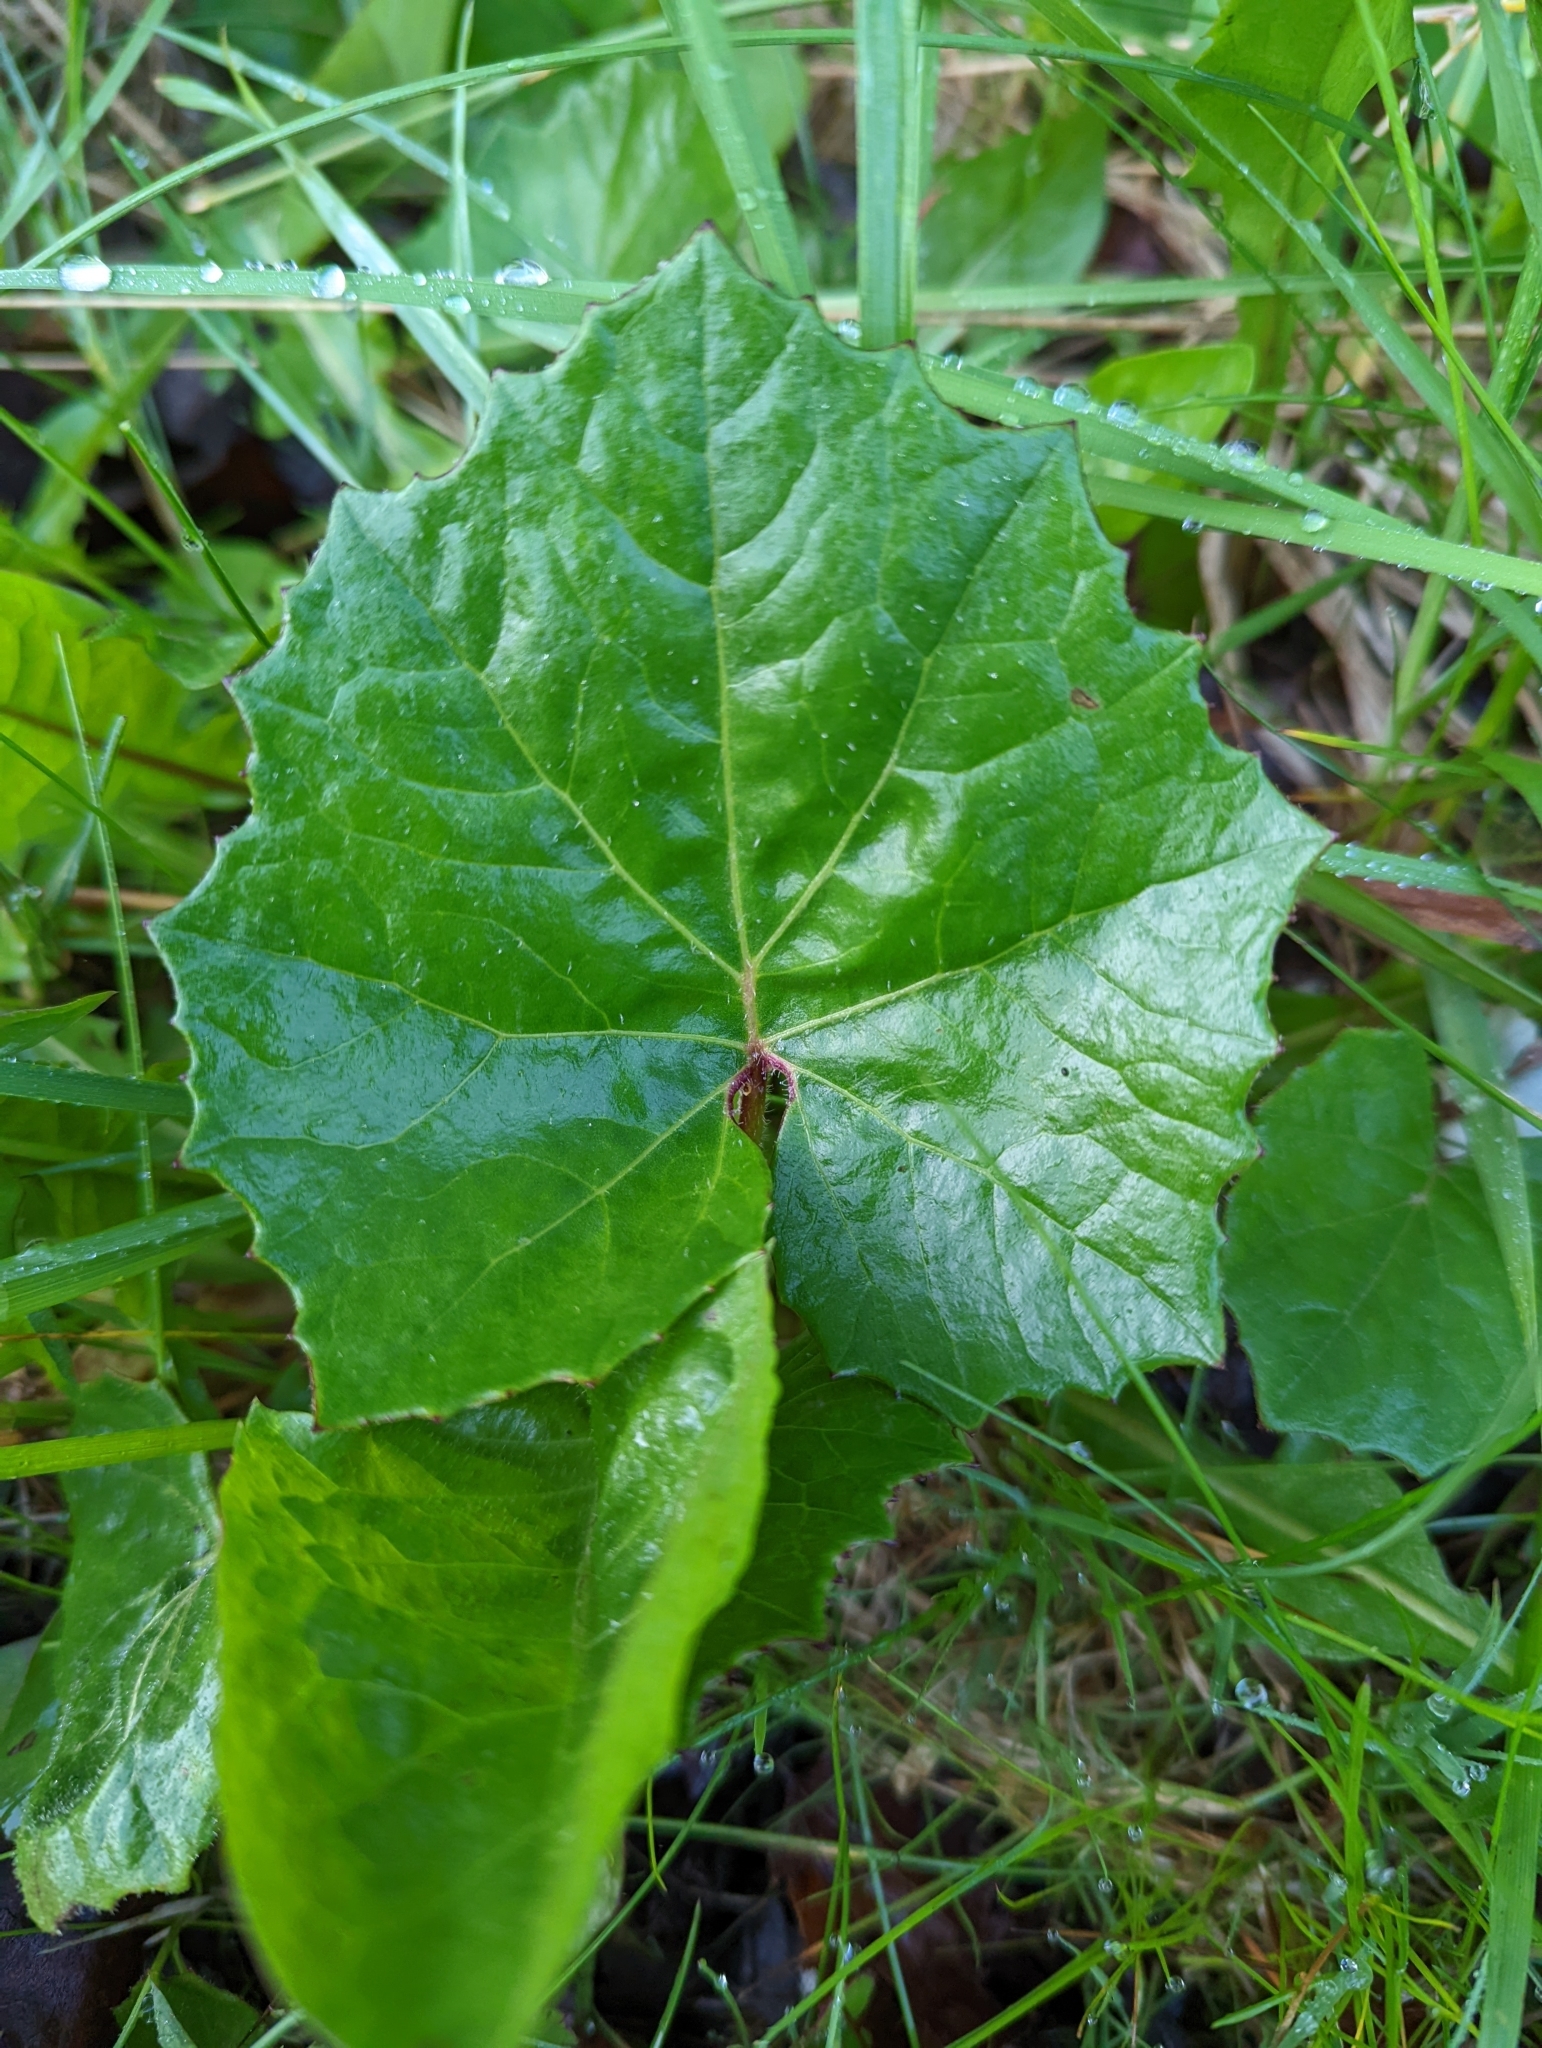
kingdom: Plantae
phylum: Tracheophyta
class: Magnoliopsida
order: Asterales
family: Asteraceae
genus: Tussilago
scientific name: Tussilago farfara
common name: Coltsfoot
